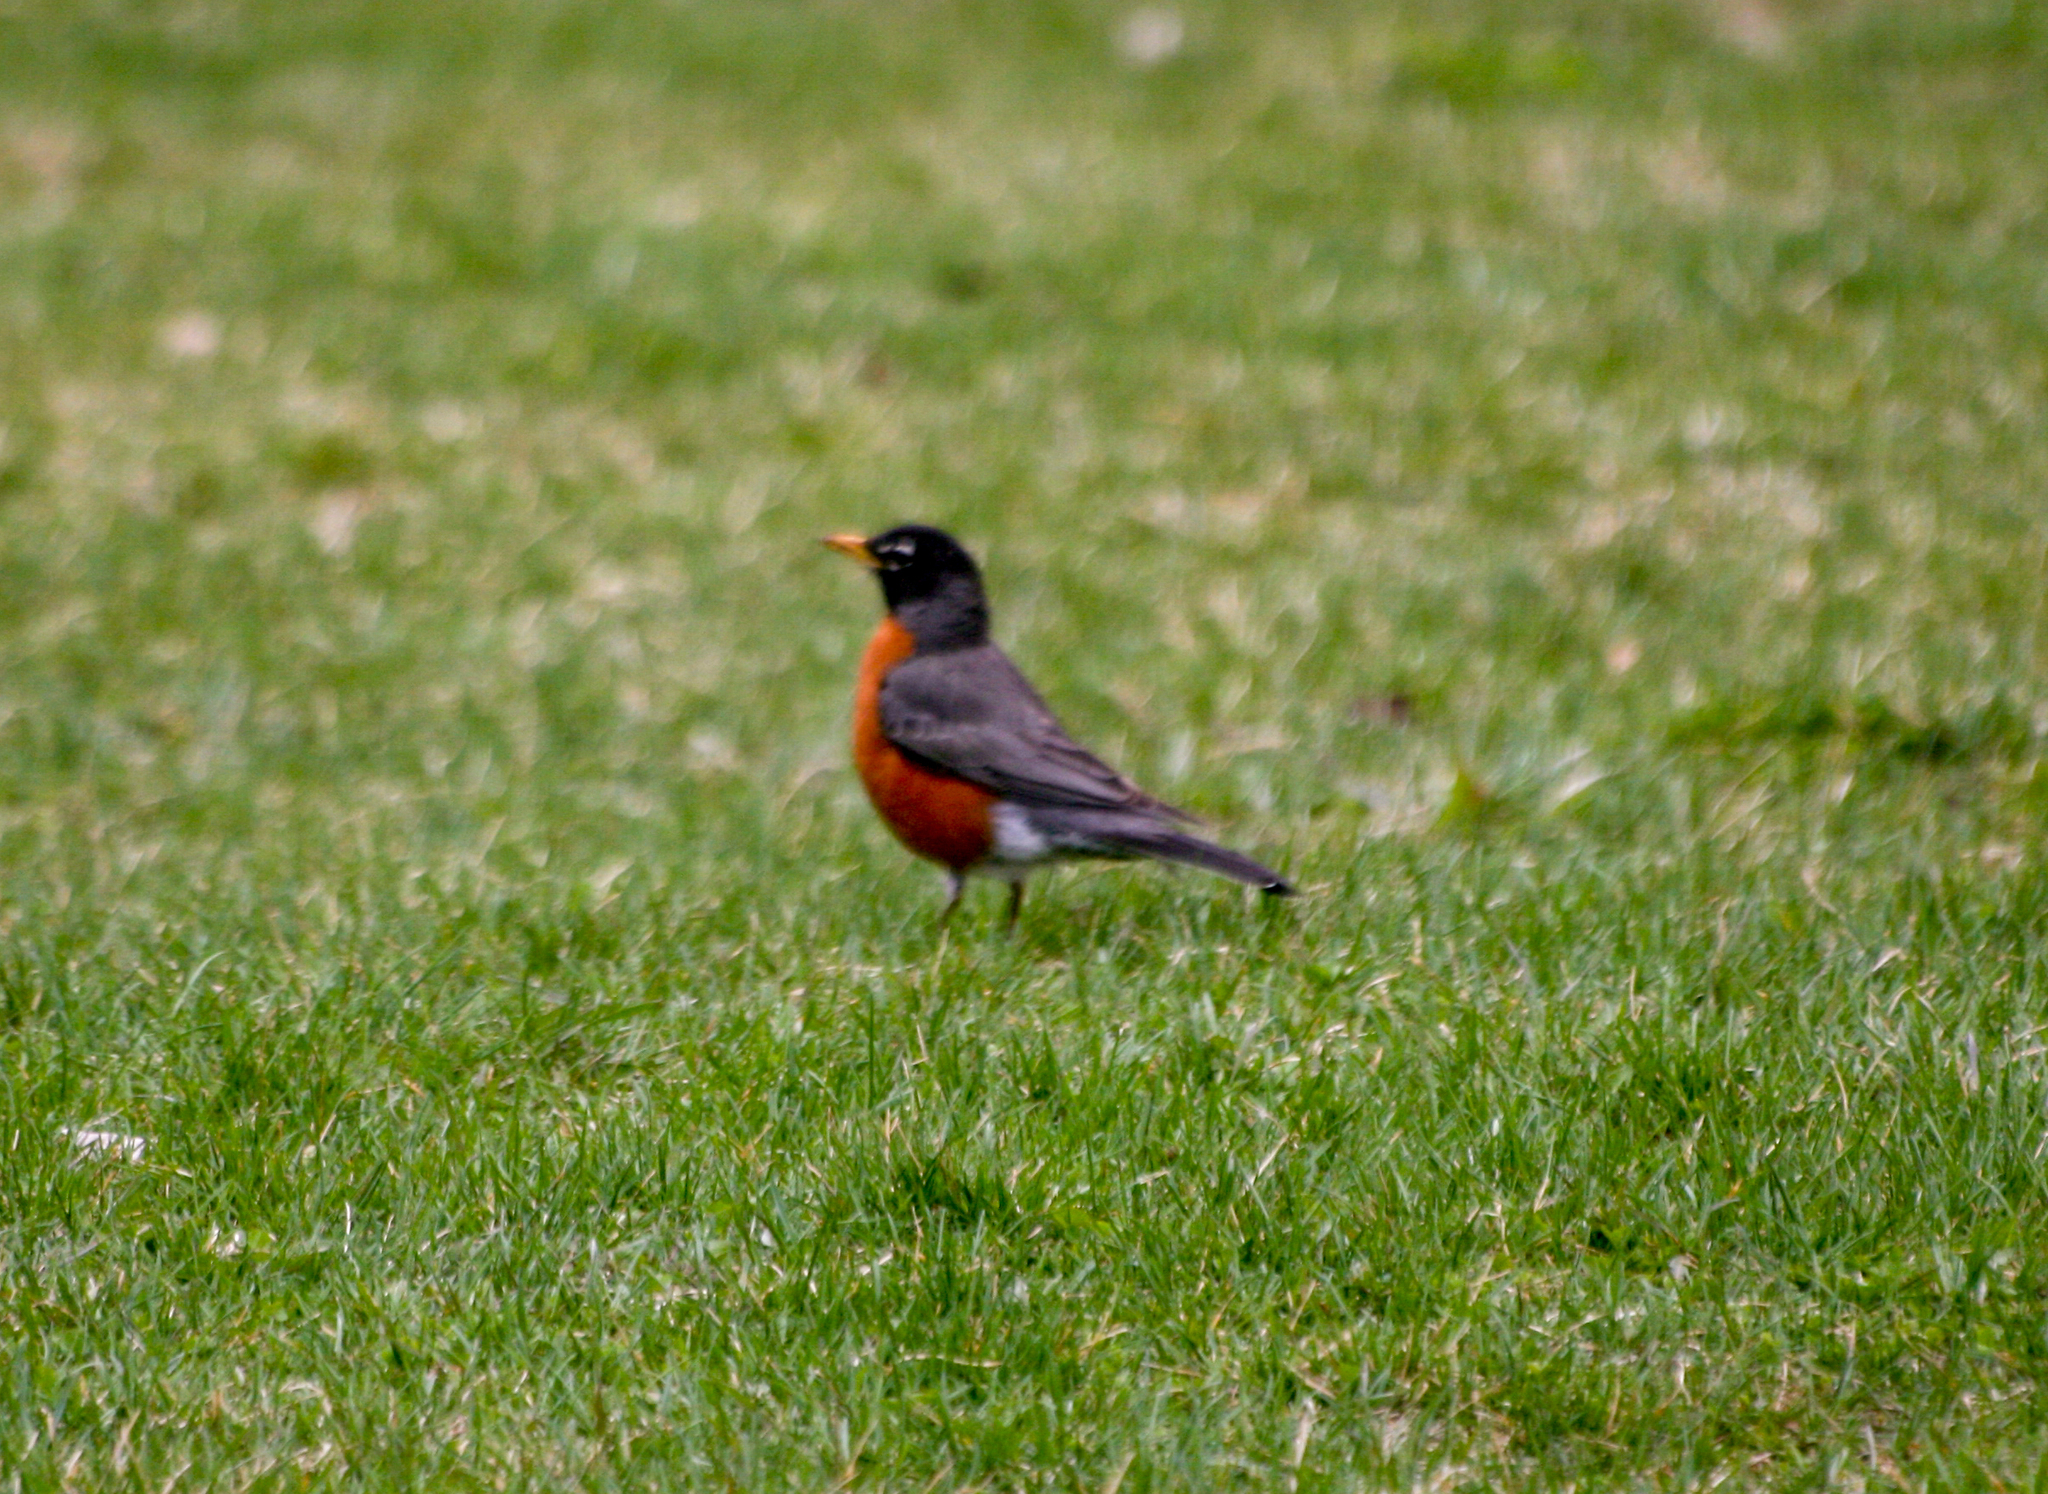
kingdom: Animalia
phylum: Chordata
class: Aves
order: Passeriformes
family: Turdidae
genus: Turdus
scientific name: Turdus migratorius
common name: American robin
